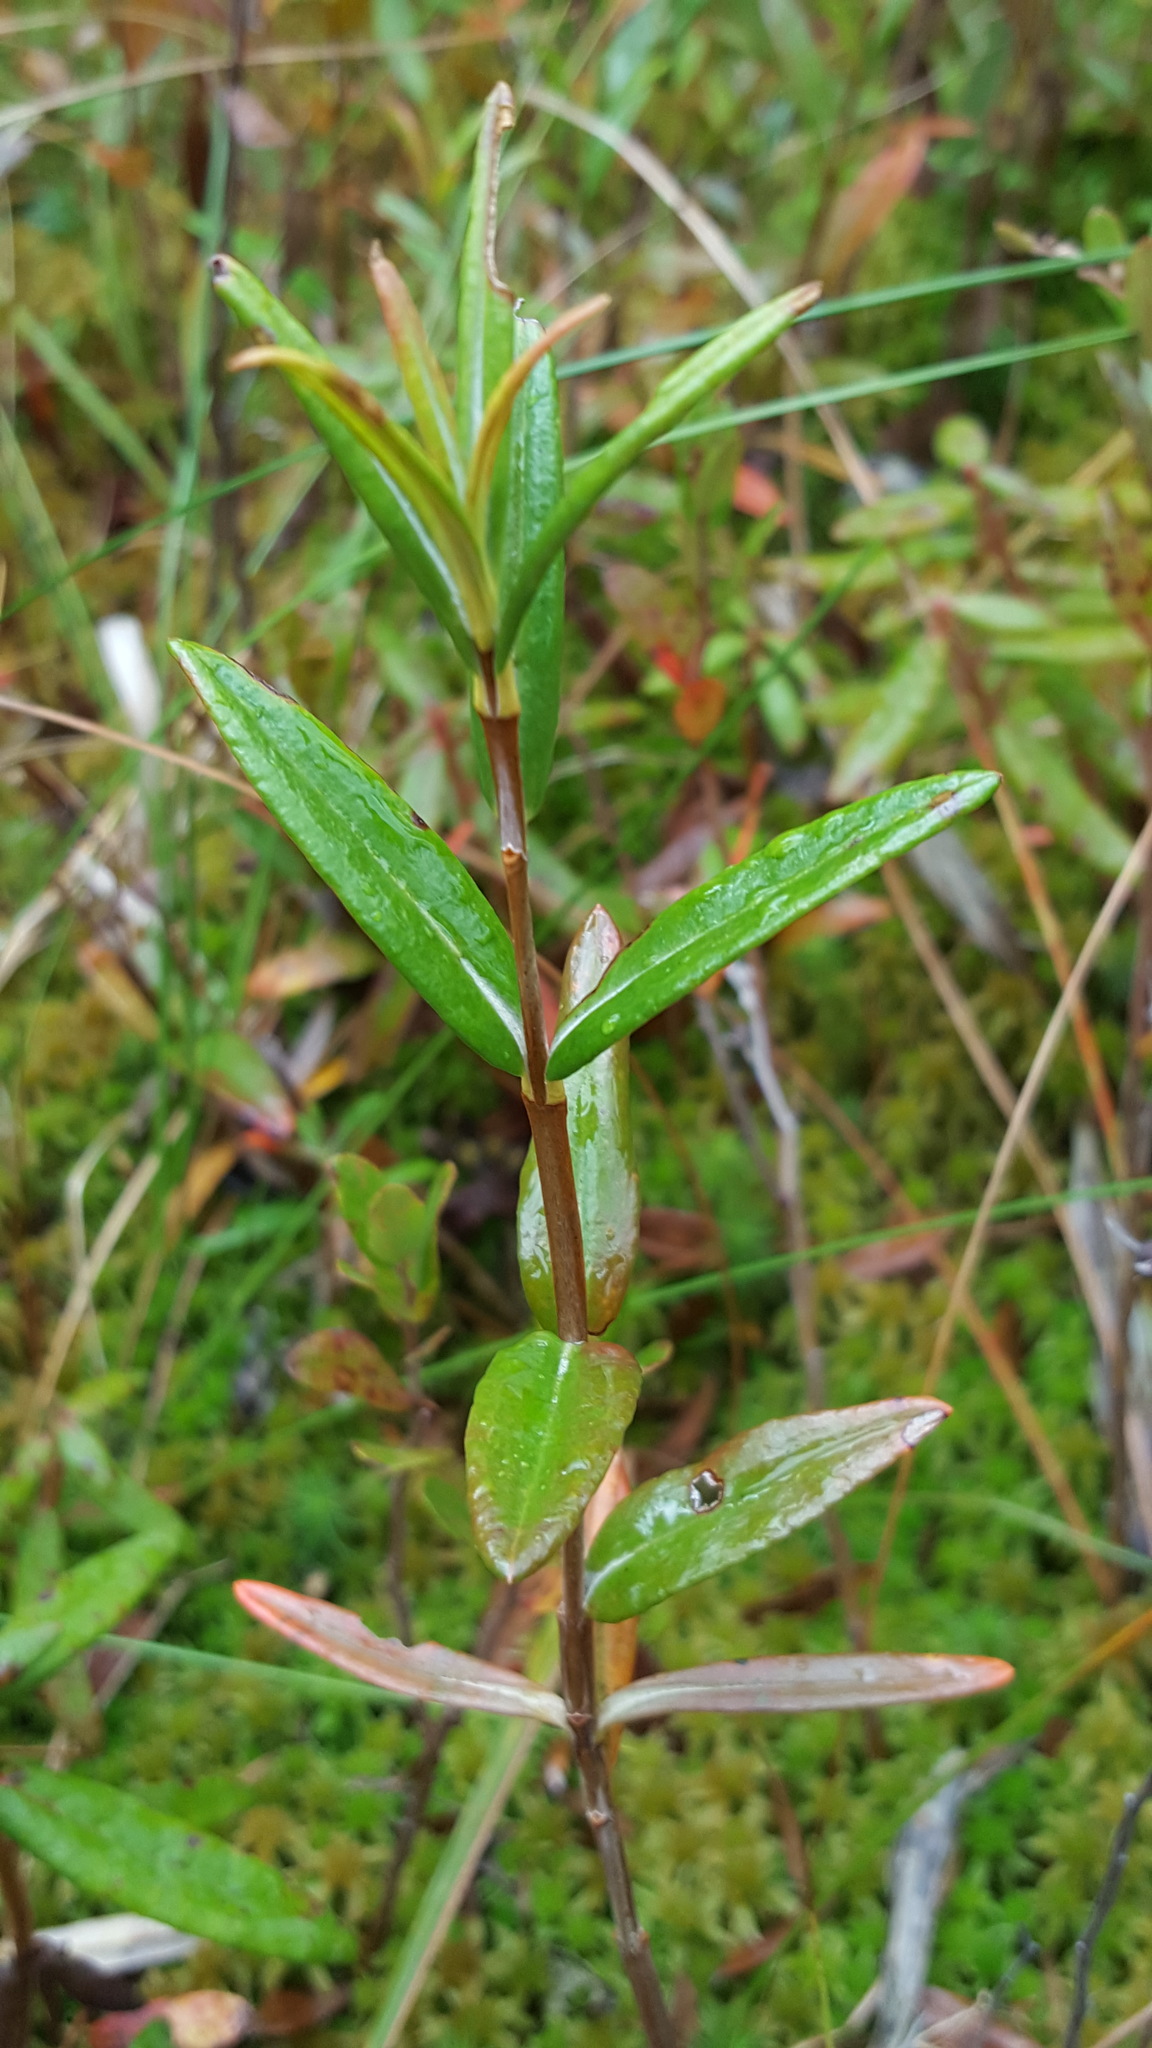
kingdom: Plantae
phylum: Tracheophyta
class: Magnoliopsida
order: Ericales
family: Ericaceae
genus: Kalmia
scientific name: Kalmia polifolia
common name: Bog-laurel
